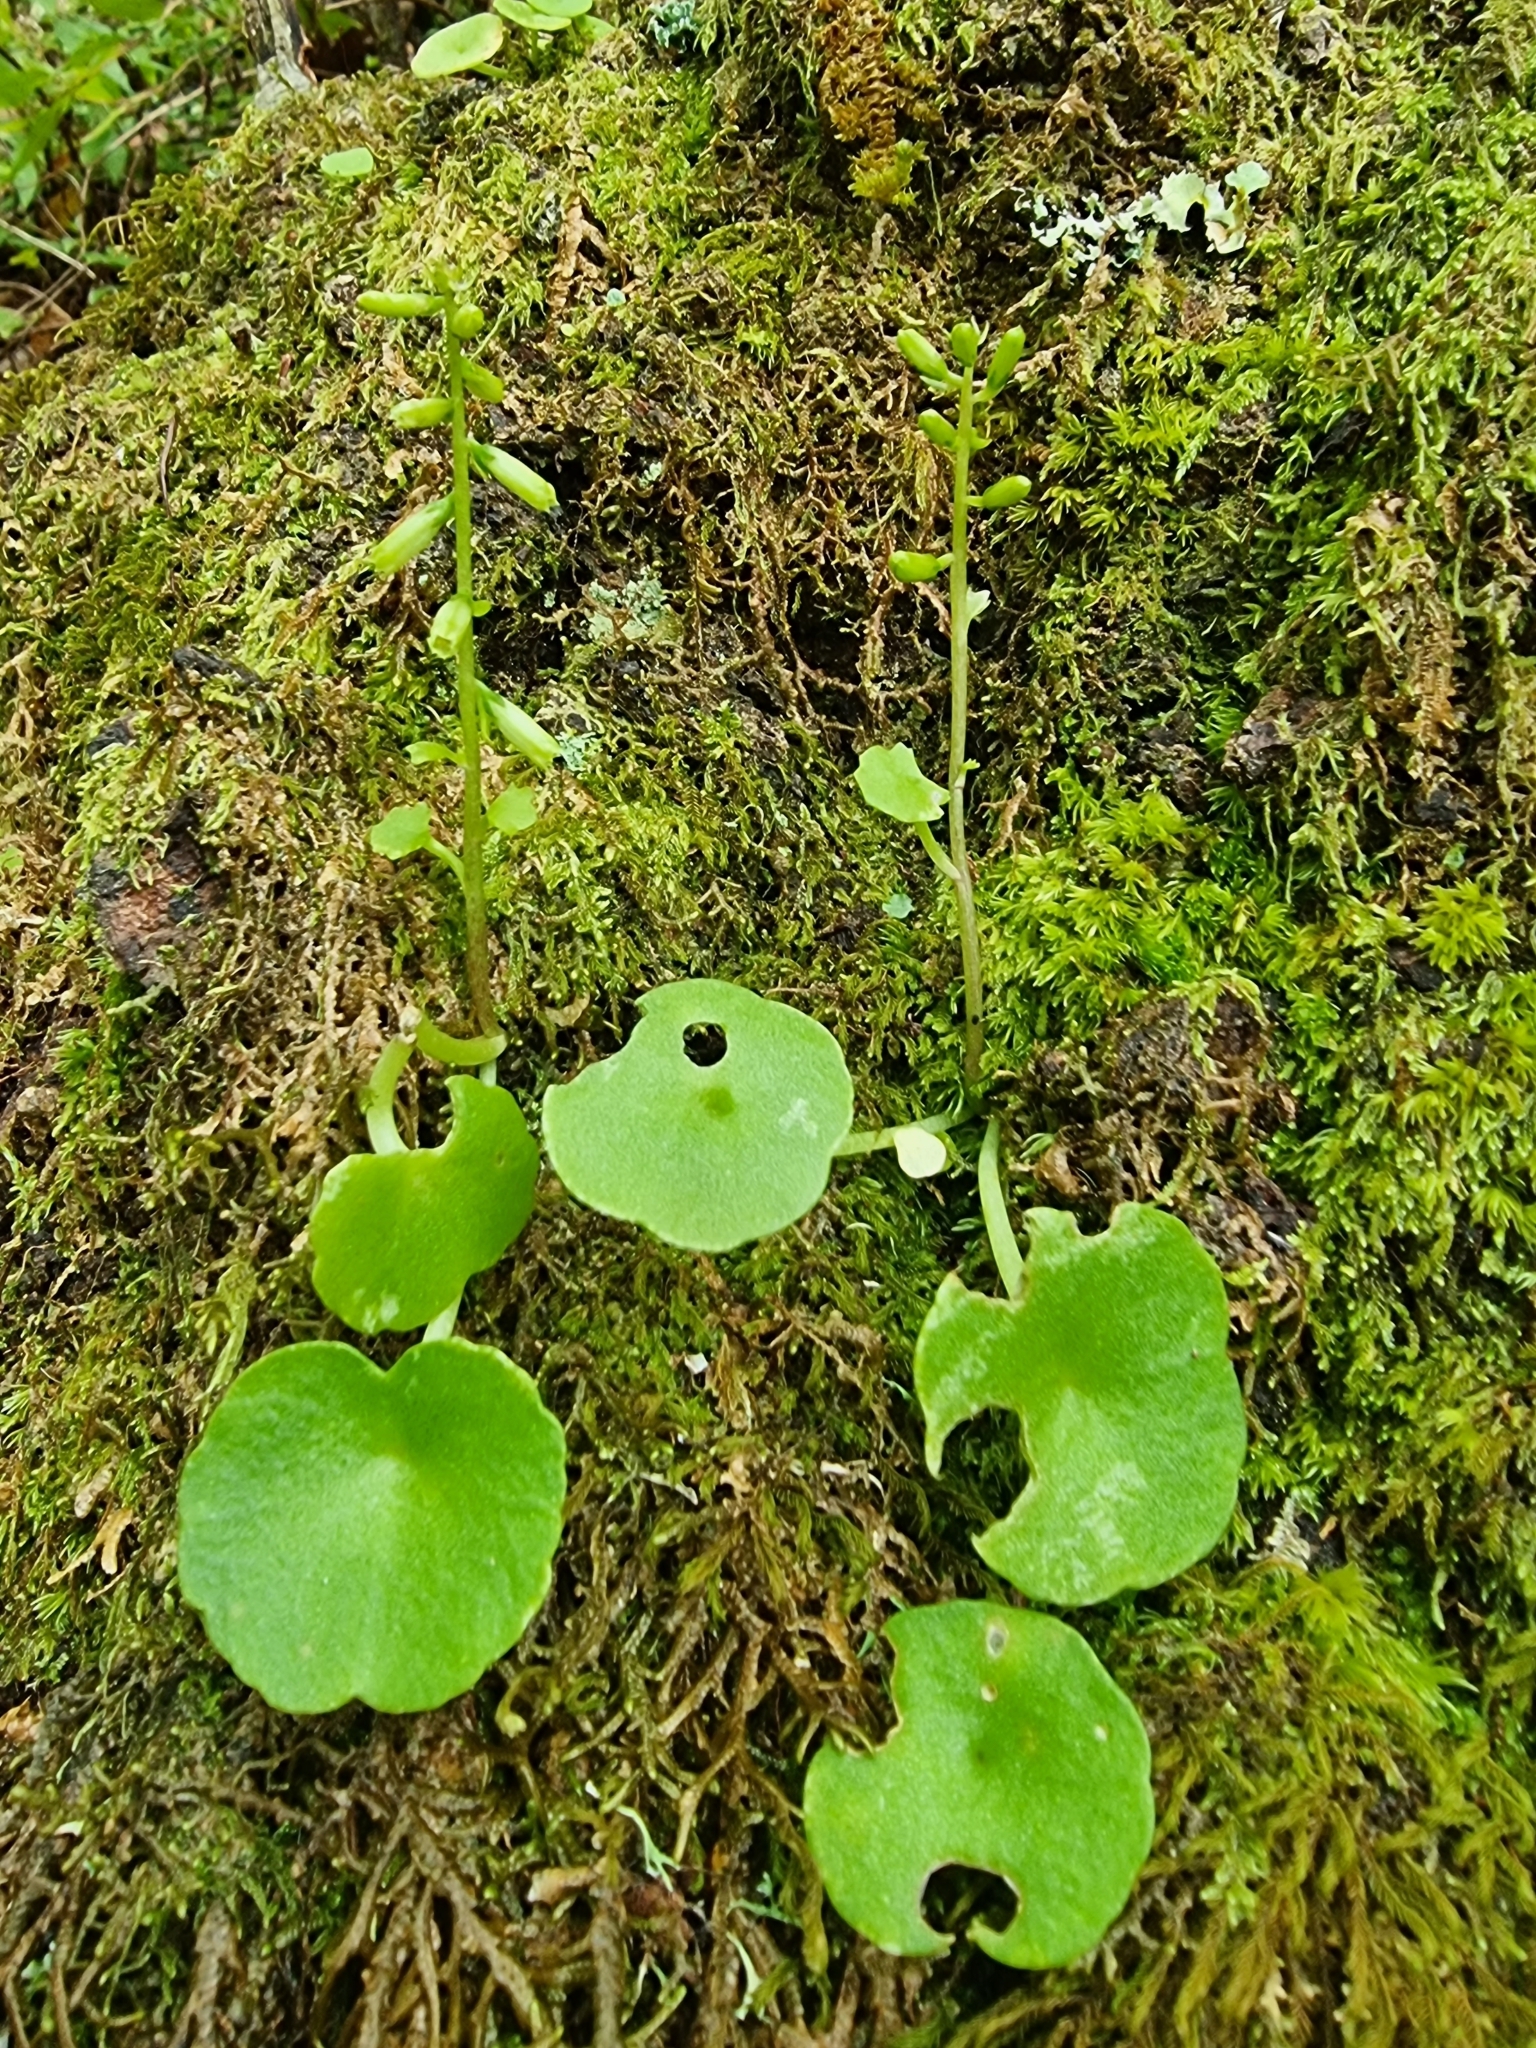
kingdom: Plantae
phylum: Tracheophyta
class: Magnoliopsida
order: Saxifragales
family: Crassulaceae
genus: Umbilicus
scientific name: Umbilicus rupestris
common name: Navelwort
